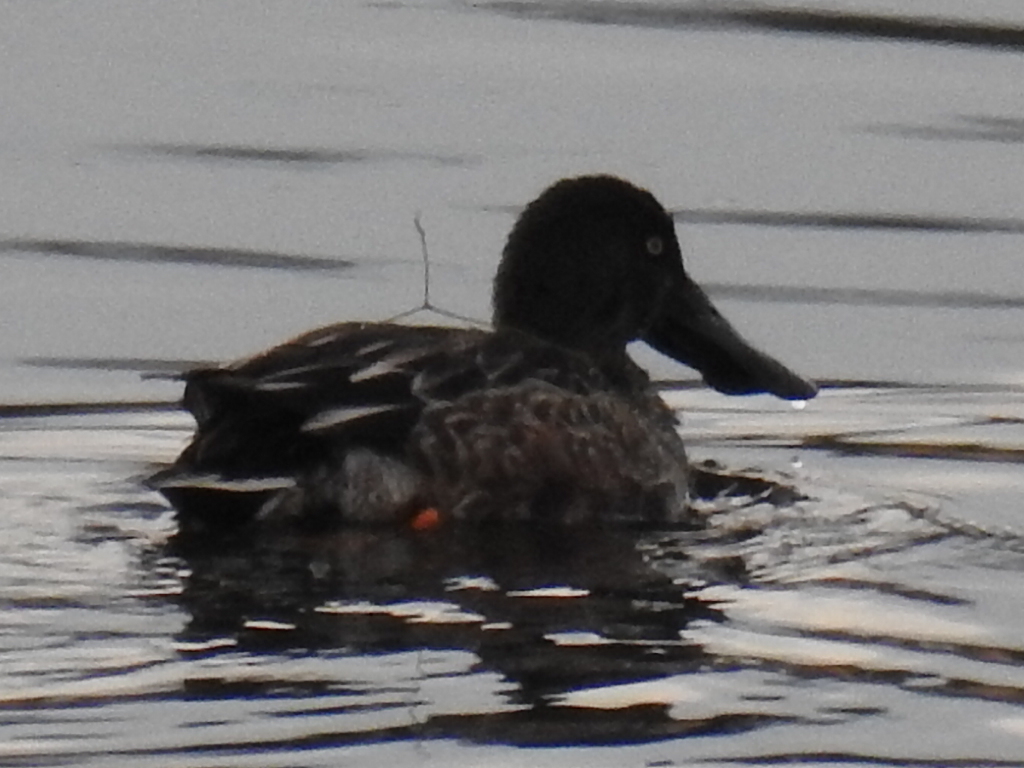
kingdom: Animalia
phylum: Chordata
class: Aves
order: Anseriformes
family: Anatidae
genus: Spatula
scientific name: Spatula clypeata
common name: Northern shoveler
